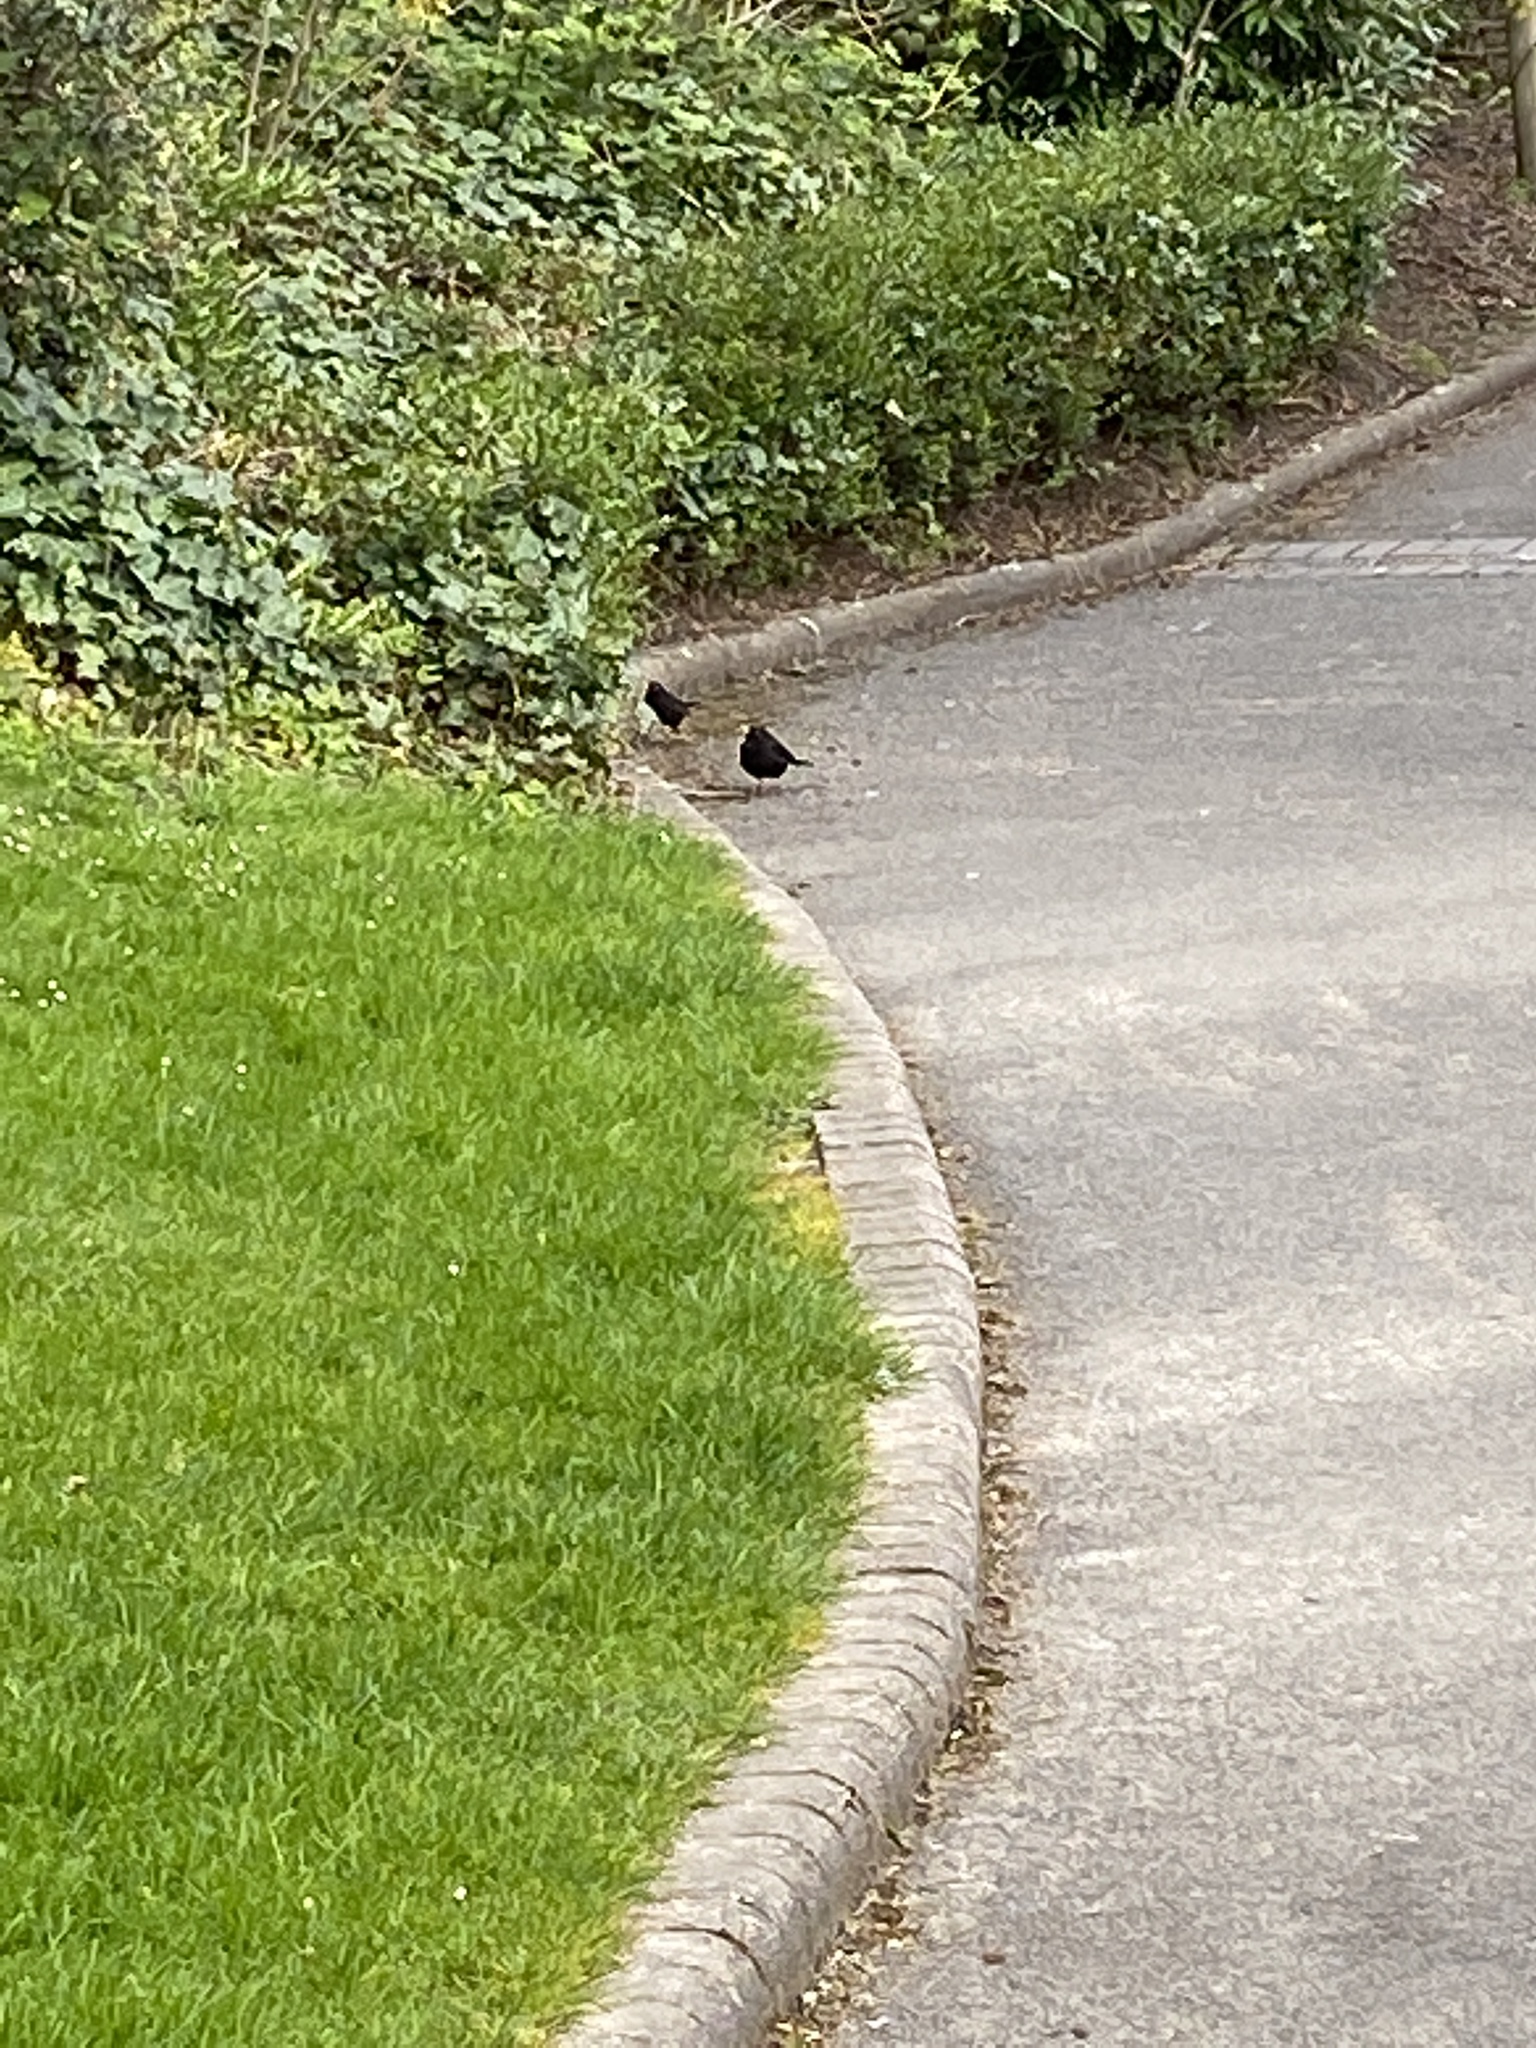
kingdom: Animalia
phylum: Chordata
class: Aves
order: Passeriformes
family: Turdidae
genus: Turdus
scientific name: Turdus merula
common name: Common blackbird
